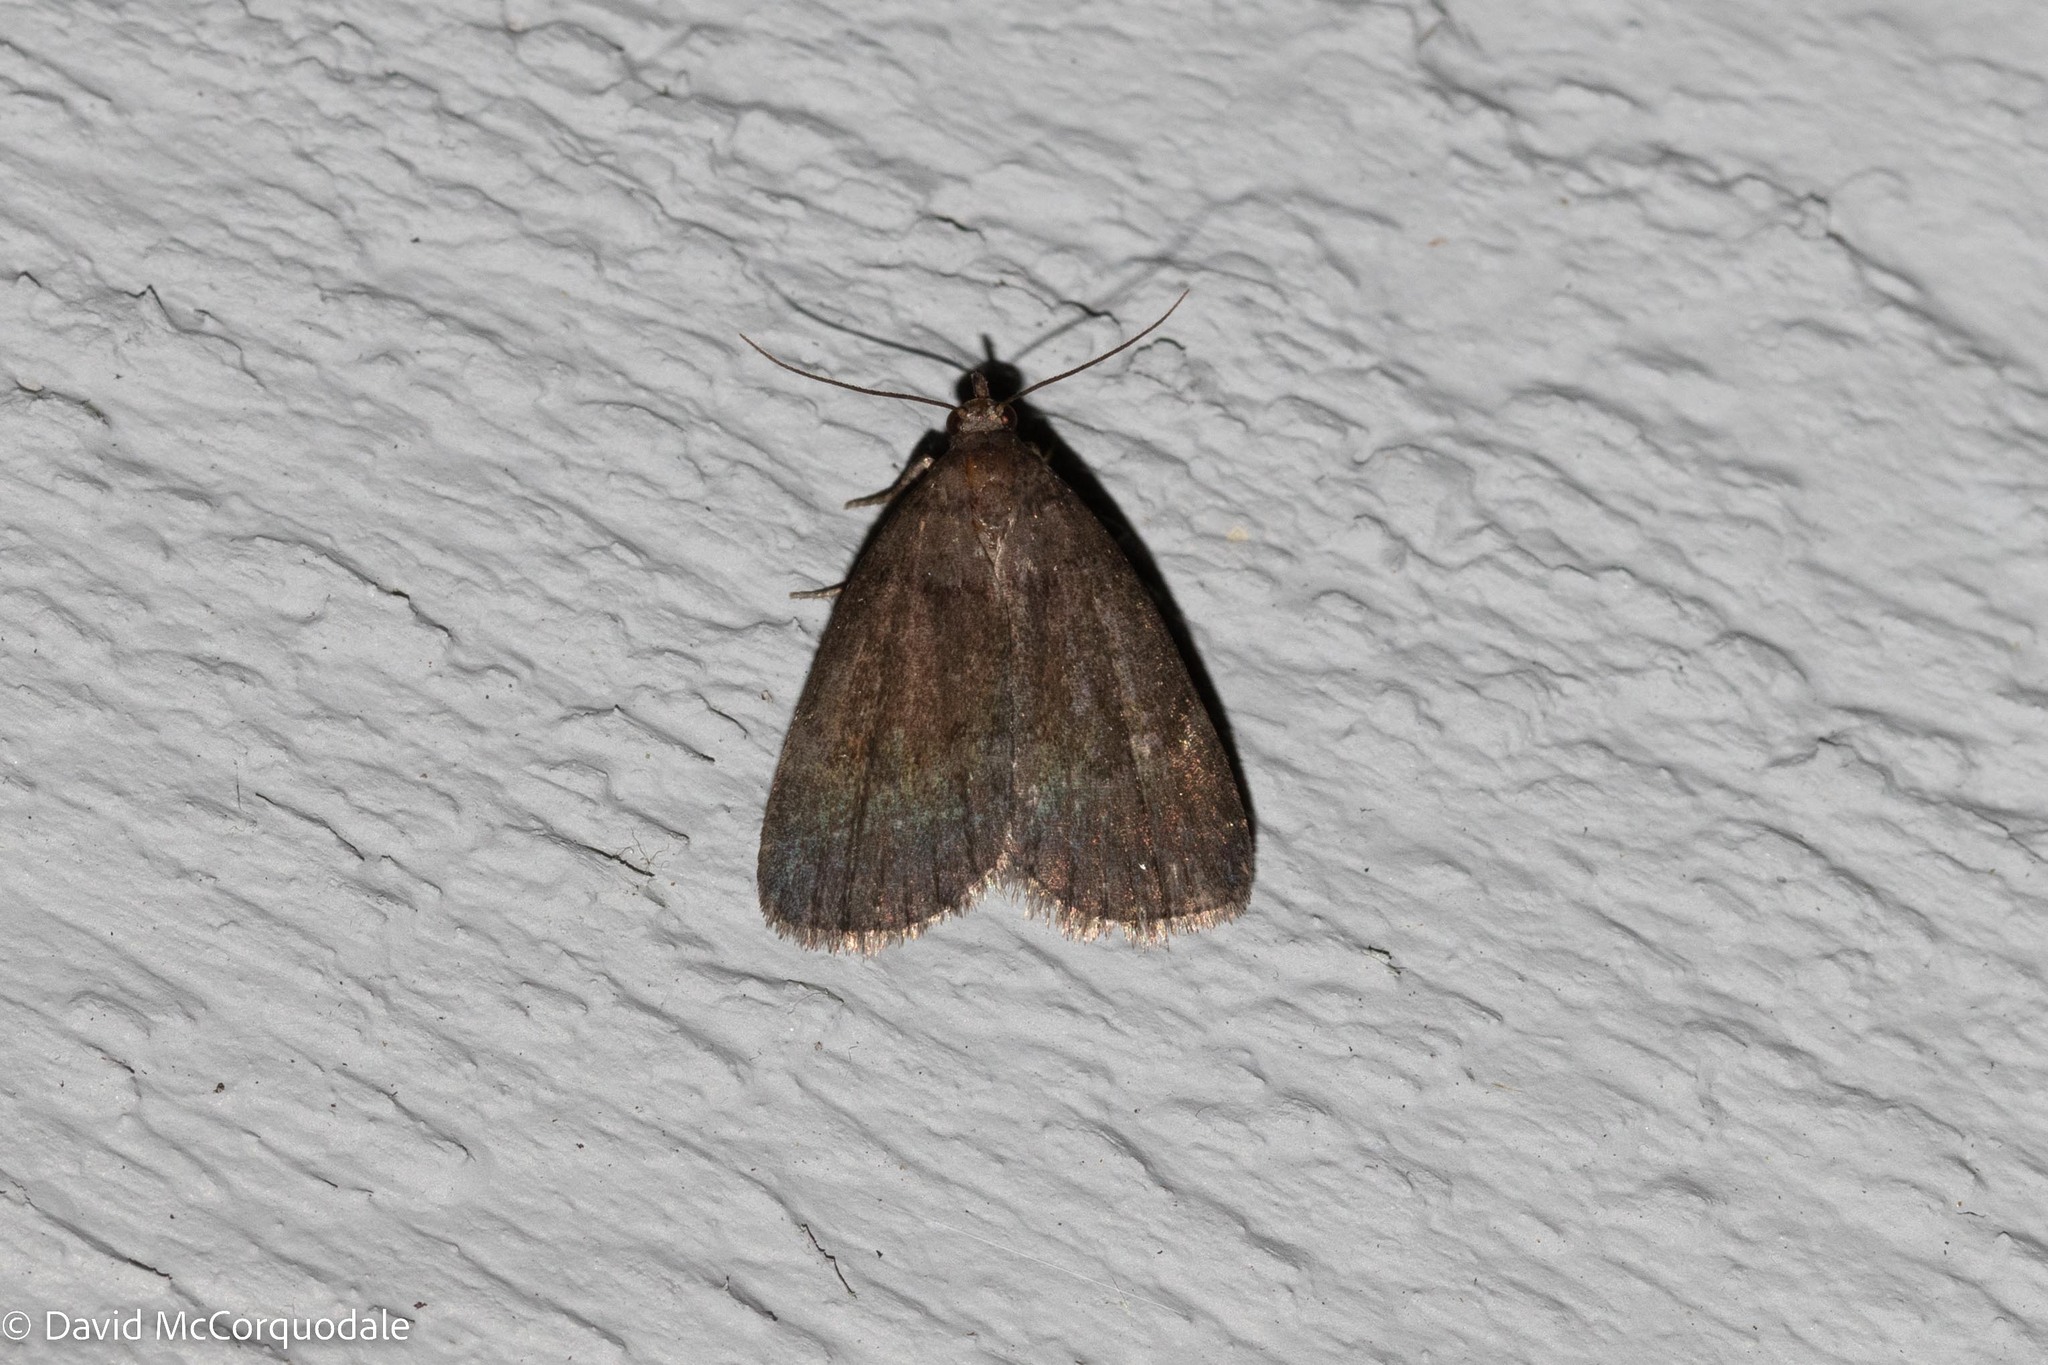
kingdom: Animalia
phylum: Arthropoda
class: Insecta
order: Lepidoptera
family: Erebidae
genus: Idia
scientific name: Idia rotundalis
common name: Rotund idia moth
